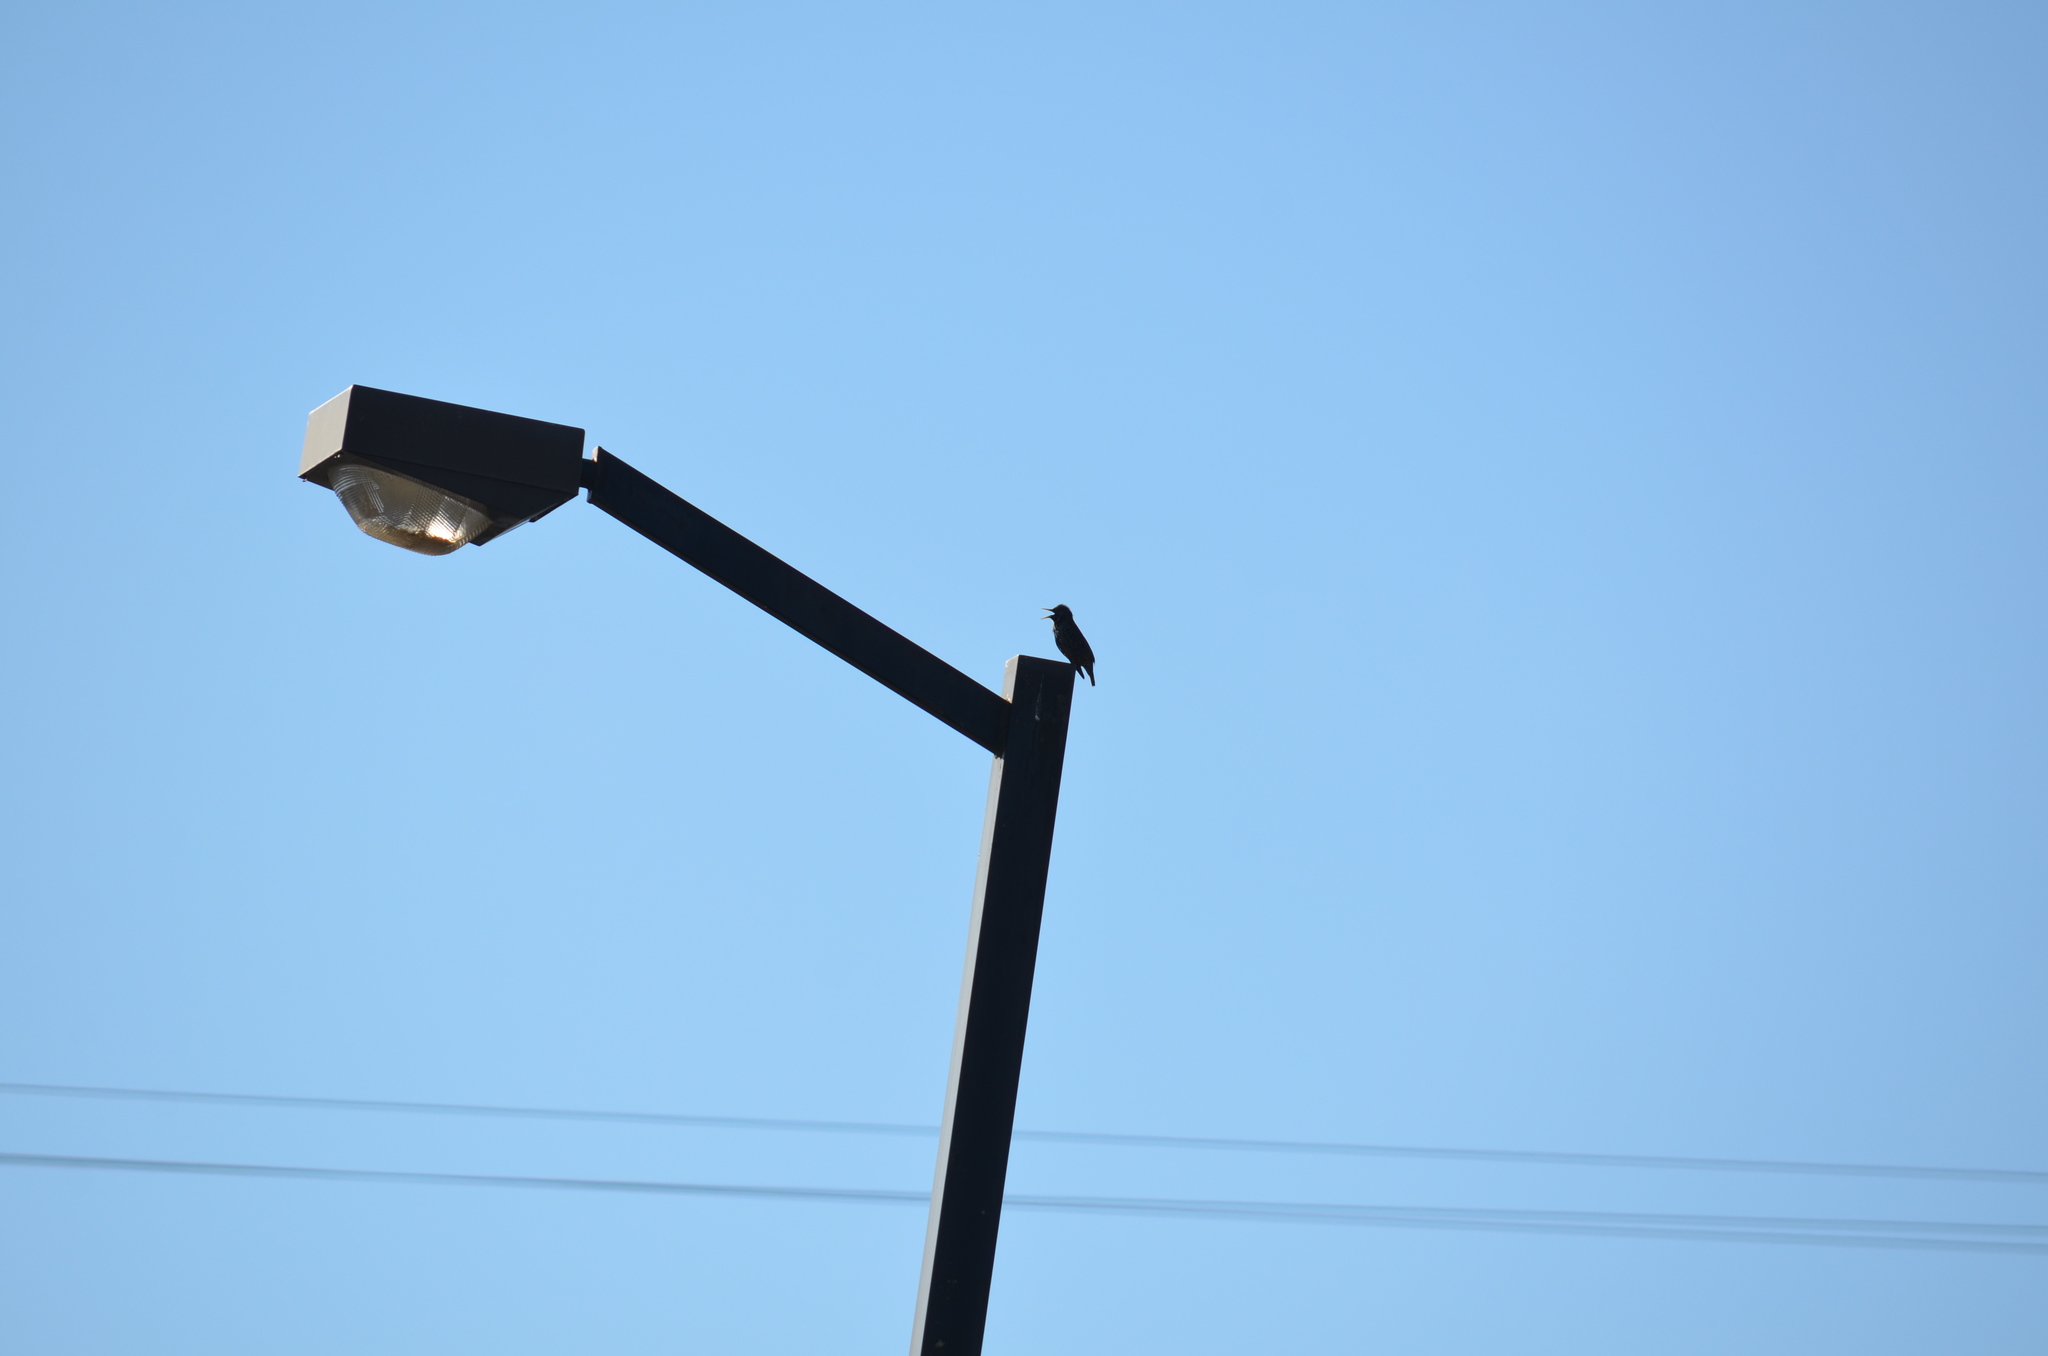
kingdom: Animalia
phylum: Chordata
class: Aves
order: Passeriformes
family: Sturnidae
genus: Sturnus
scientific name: Sturnus vulgaris
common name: Common starling
